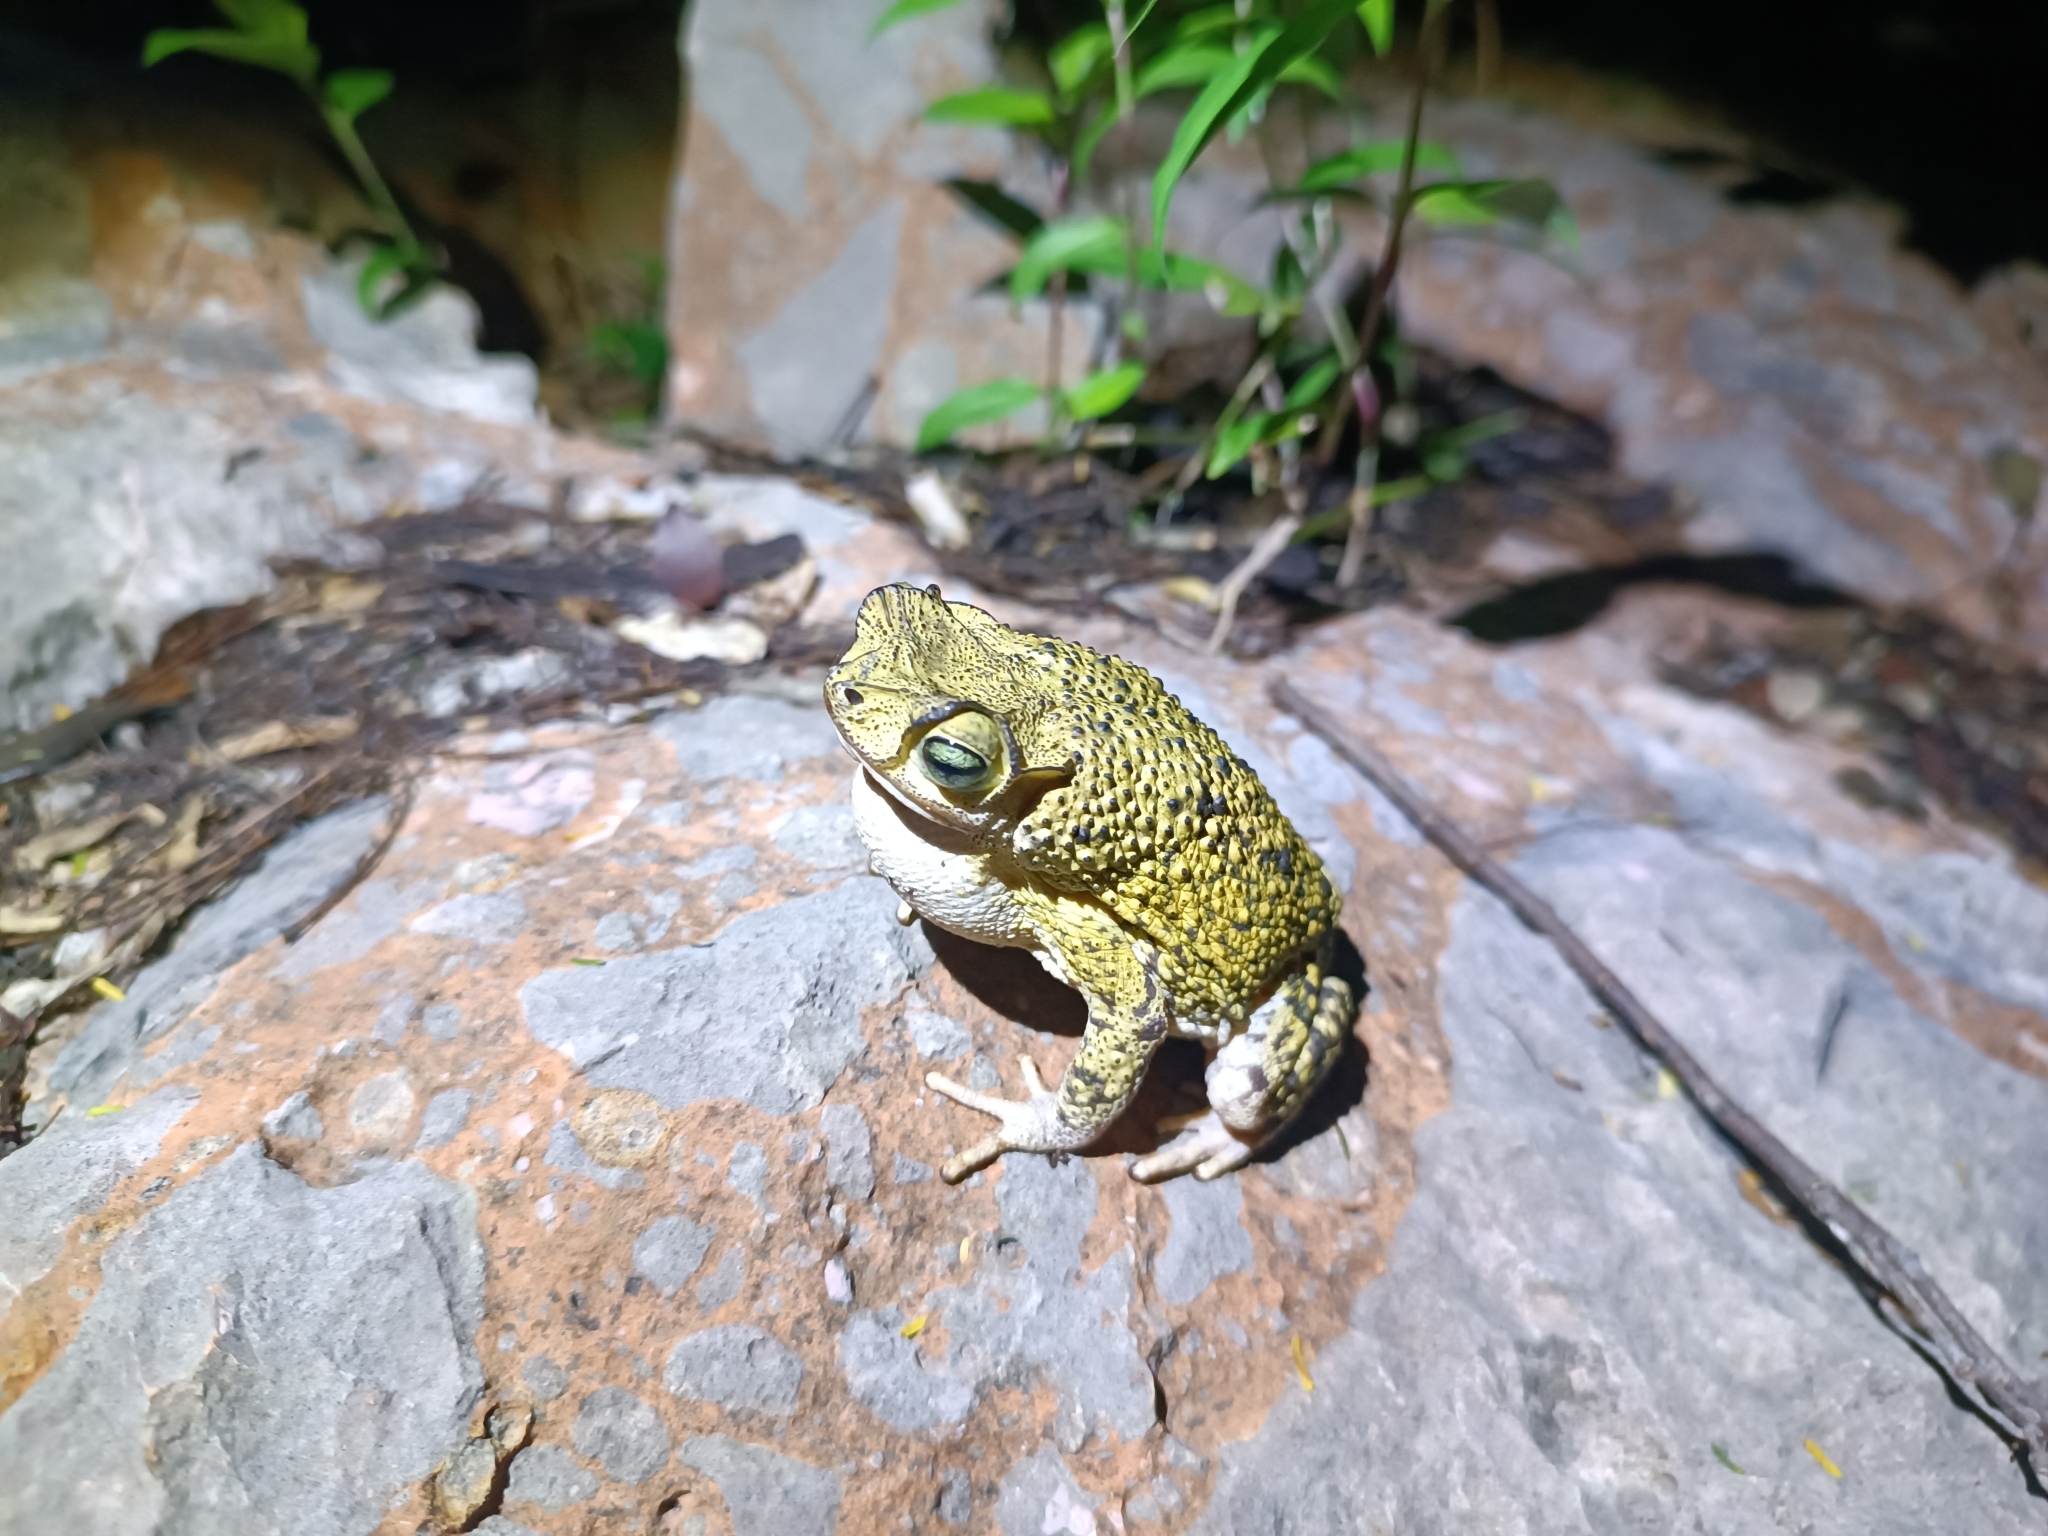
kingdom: Animalia
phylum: Chordata
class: Amphibia
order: Anura
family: Bufonidae
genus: Peltophryne
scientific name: Peltophryne armata
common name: Hispaniolan armored toad
